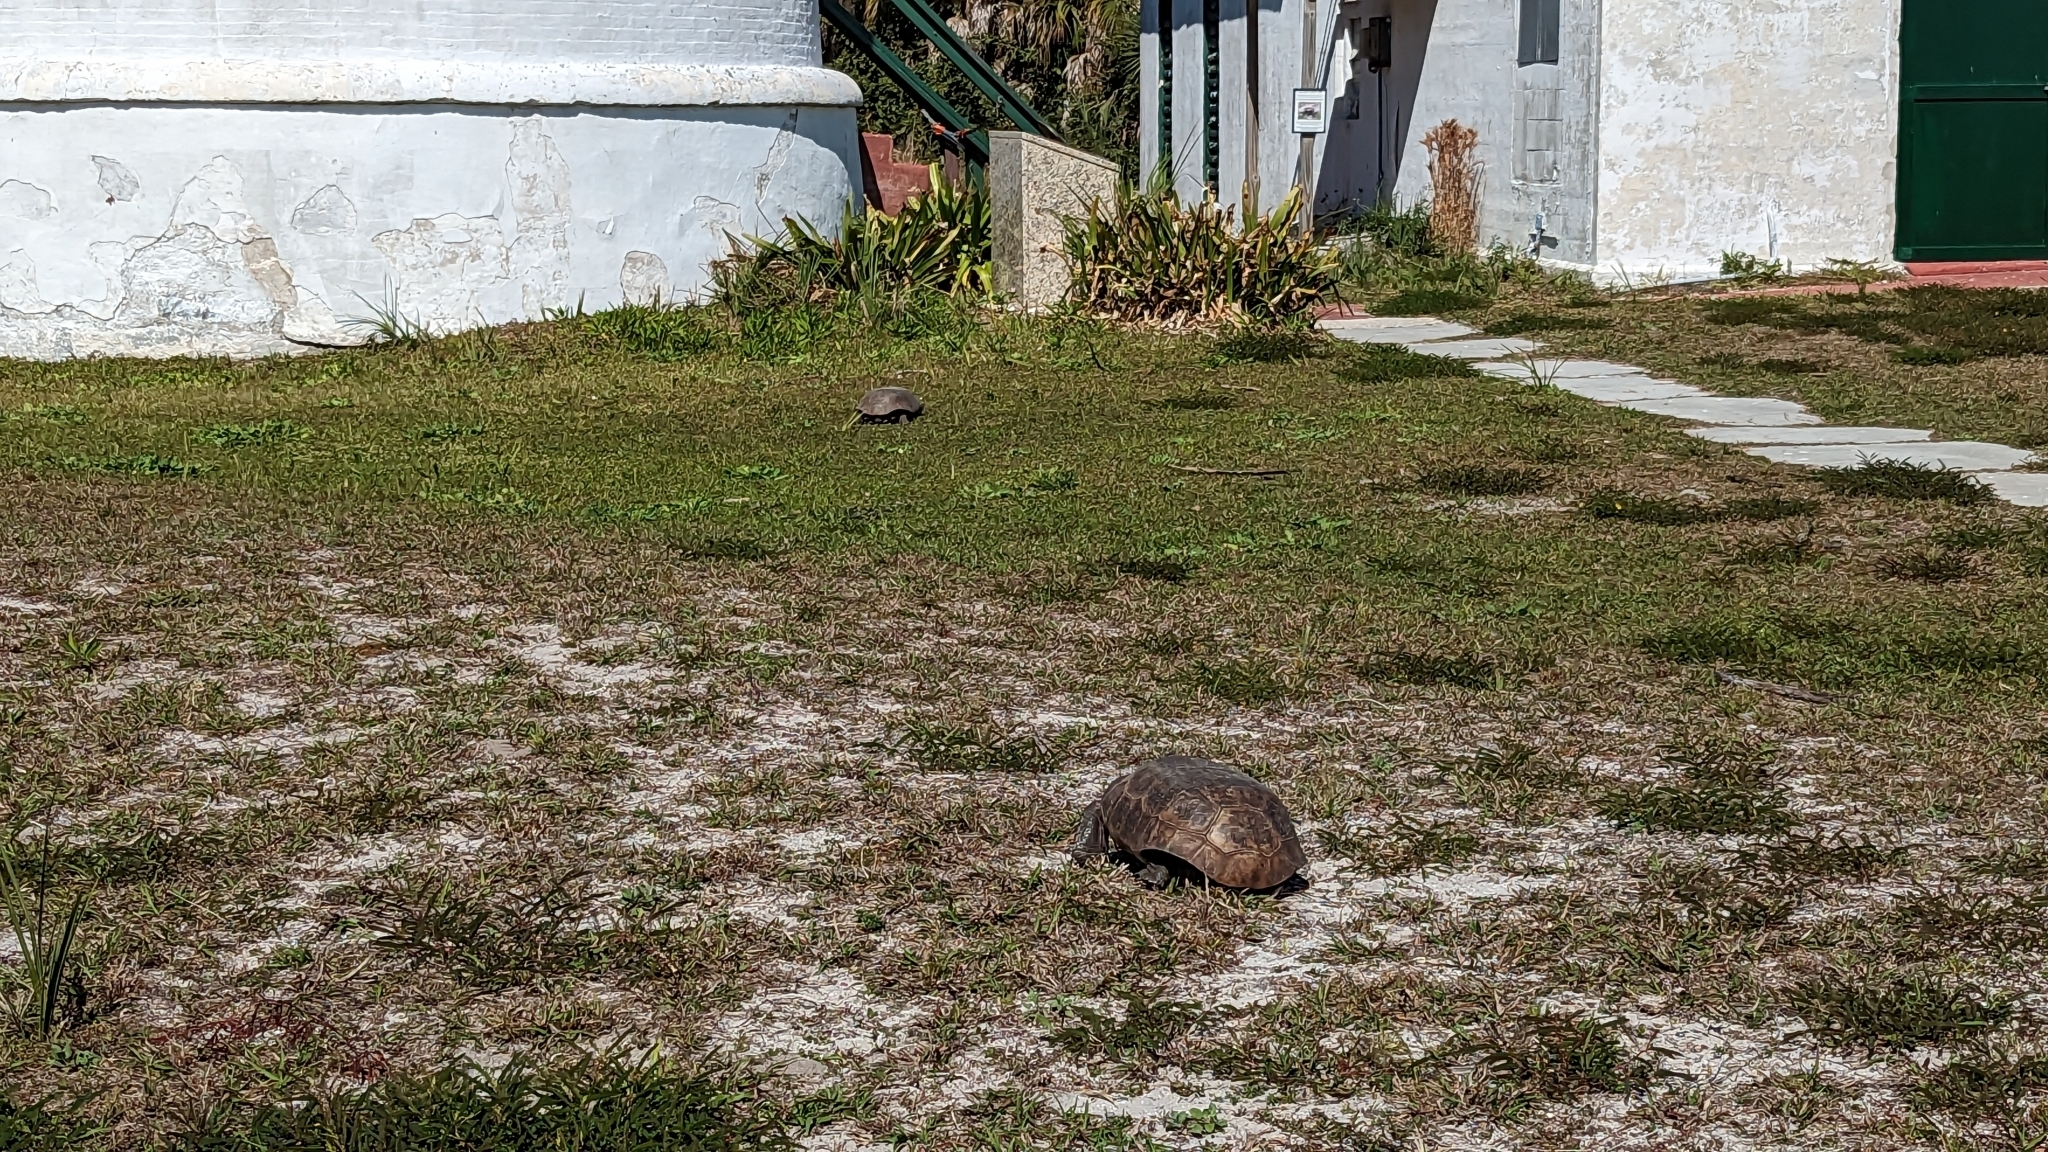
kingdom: Animalia
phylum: Chordata
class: Testudines
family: Testudinidae
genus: Gopherus
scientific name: Gopherus polyphemus
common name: Florida gopher tortoise
